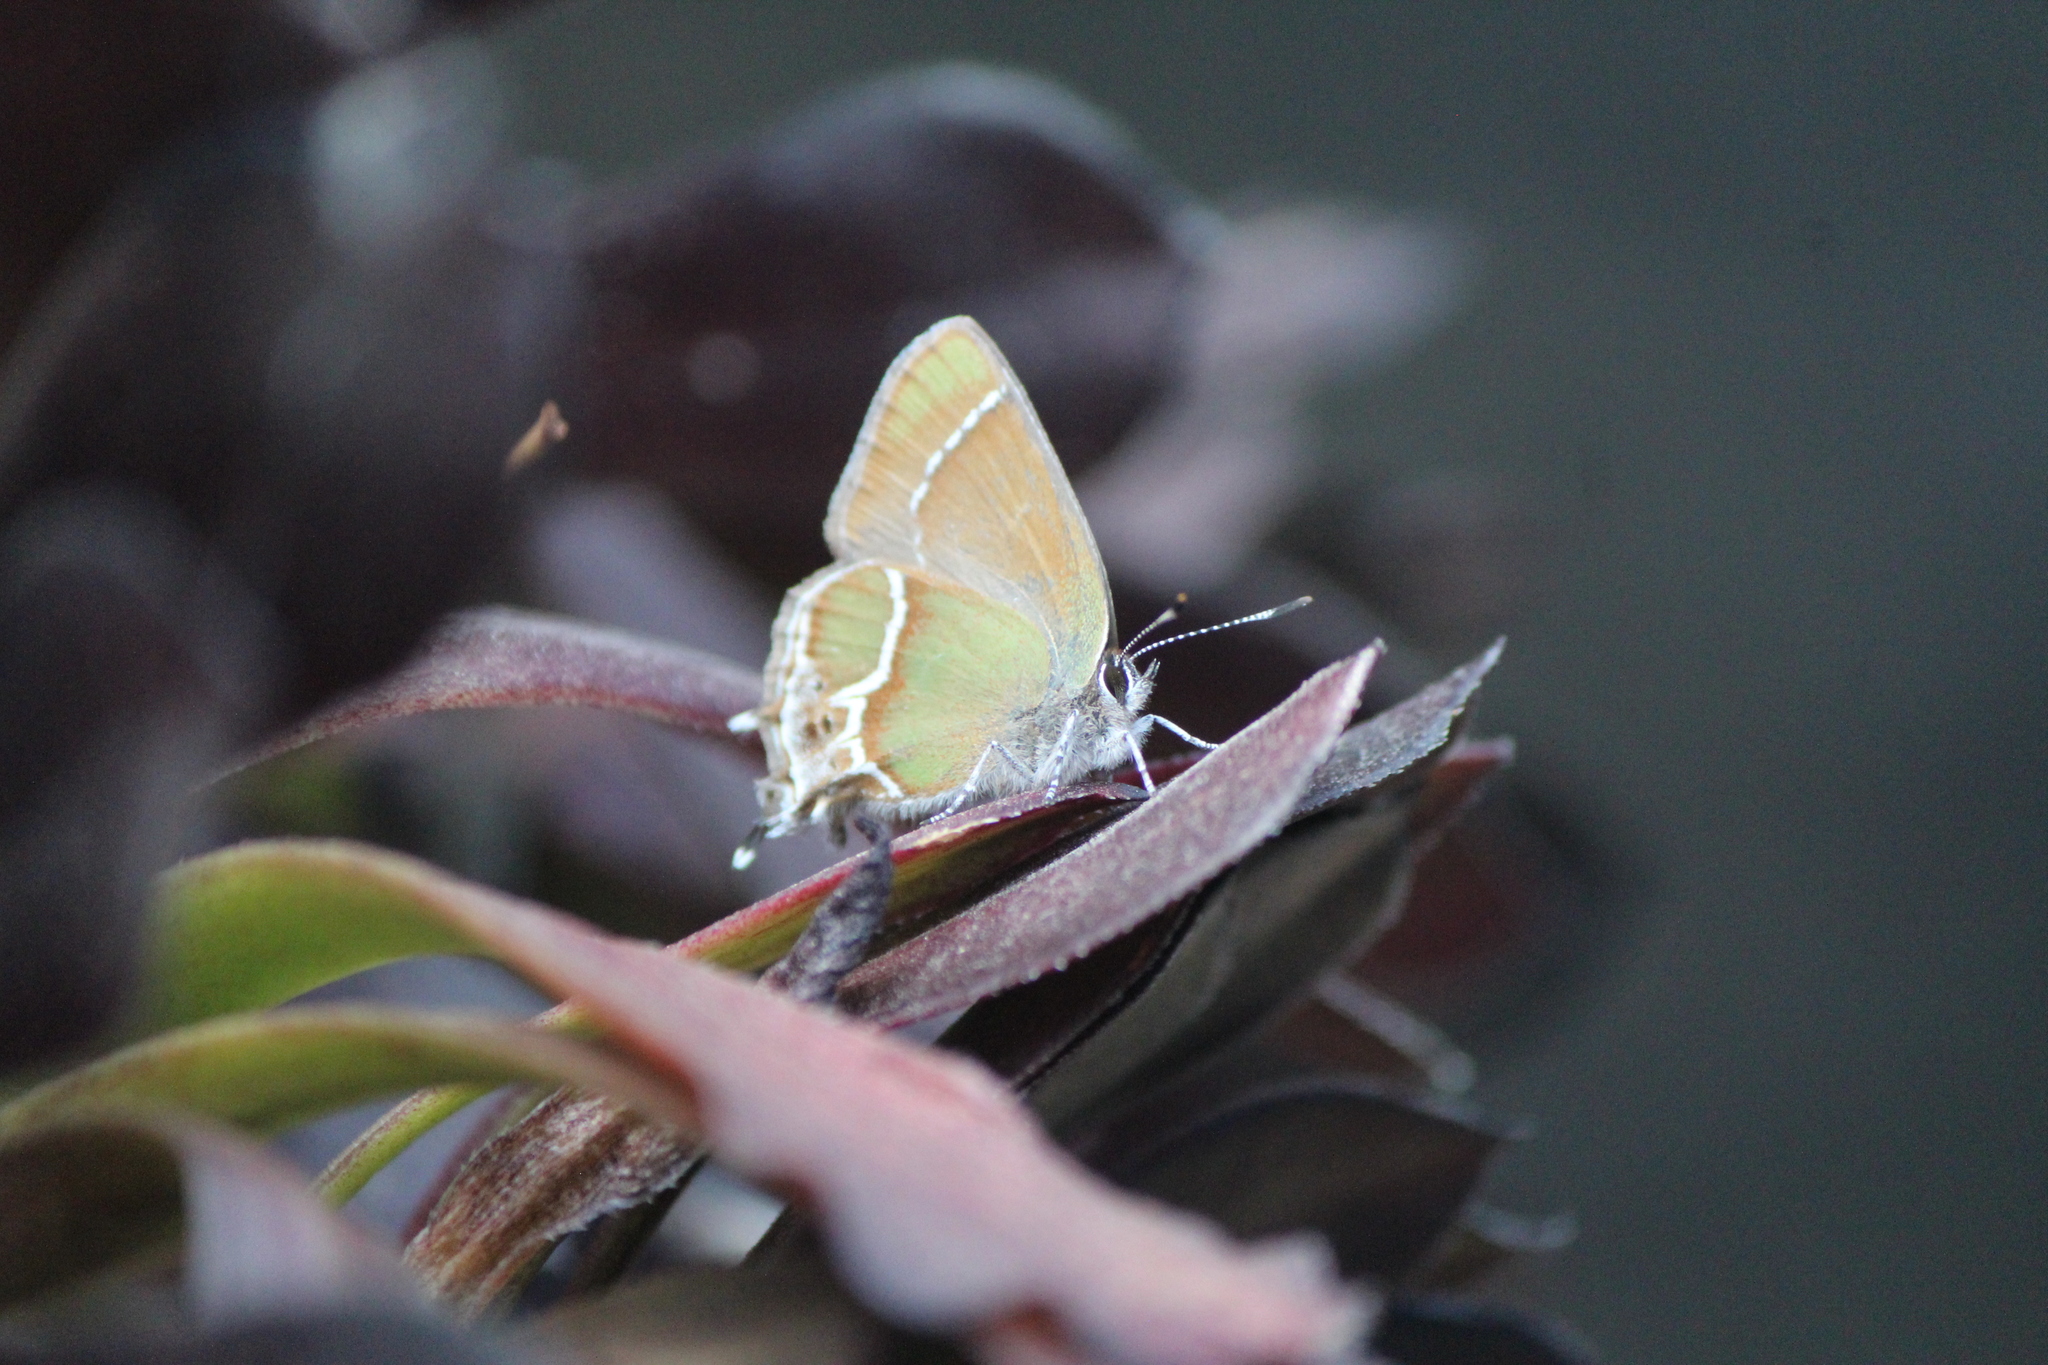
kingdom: Animalia
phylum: Arthropoda
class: Insecta
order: Lepidoptera
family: Lycaenidae
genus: Xamia
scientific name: Xamia xami
